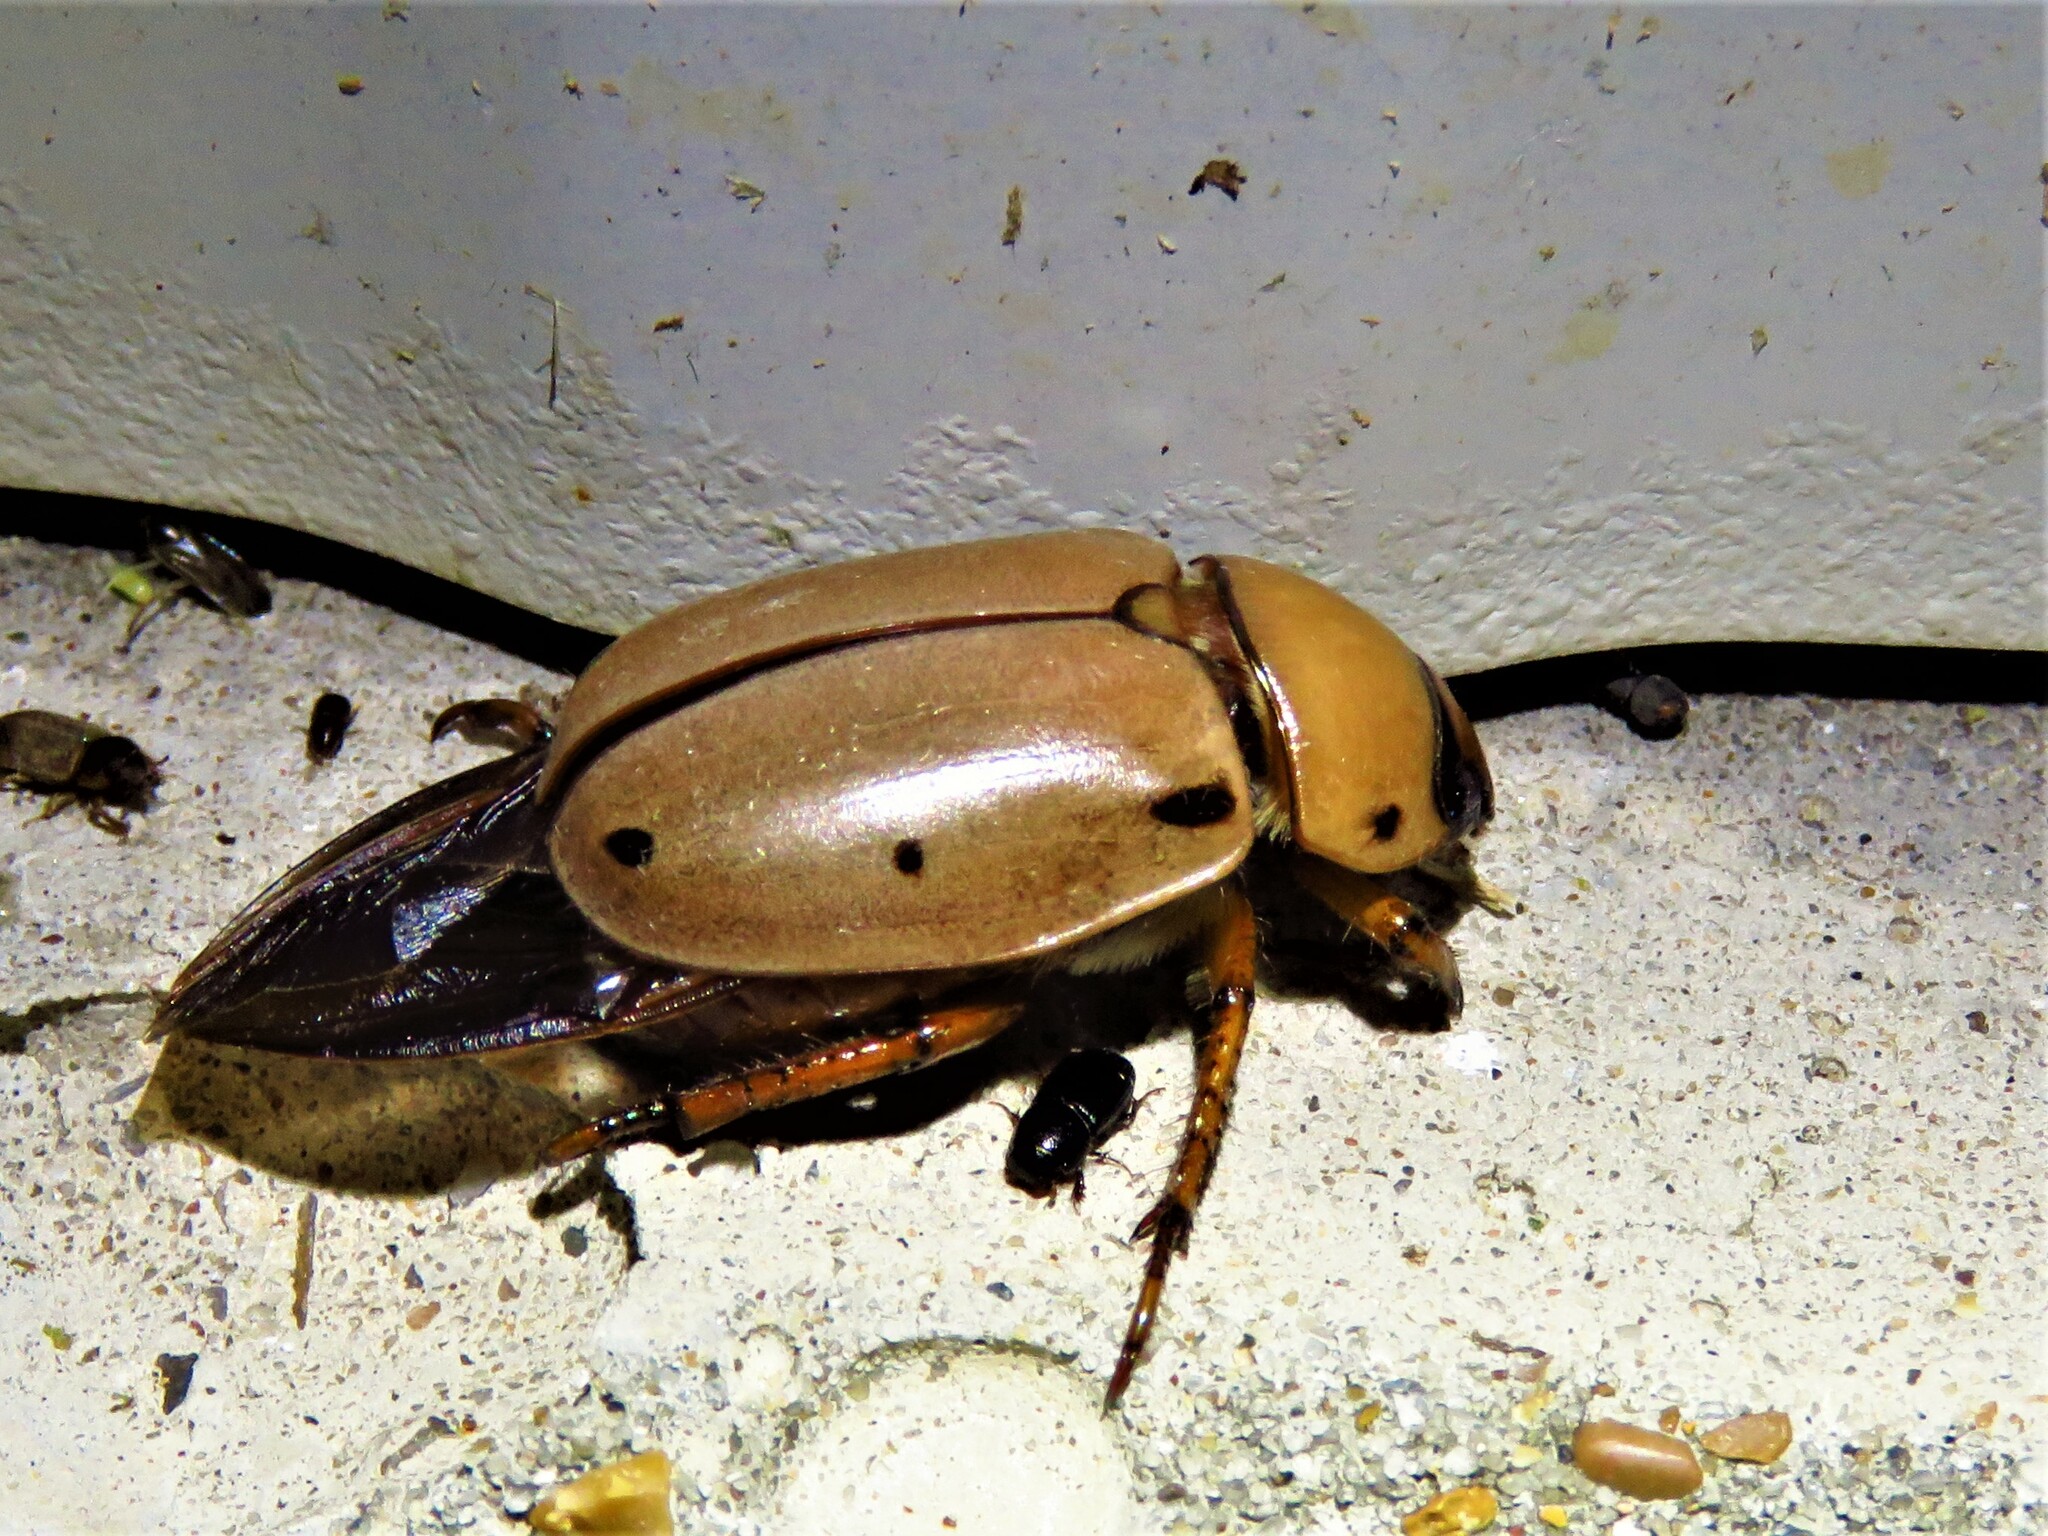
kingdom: Animalia
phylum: Arthropoda
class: Insecta
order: Coleoptera
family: Scarabaeidae
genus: Pelidnota
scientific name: Pelidnota punctata
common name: Grapevine beetle
